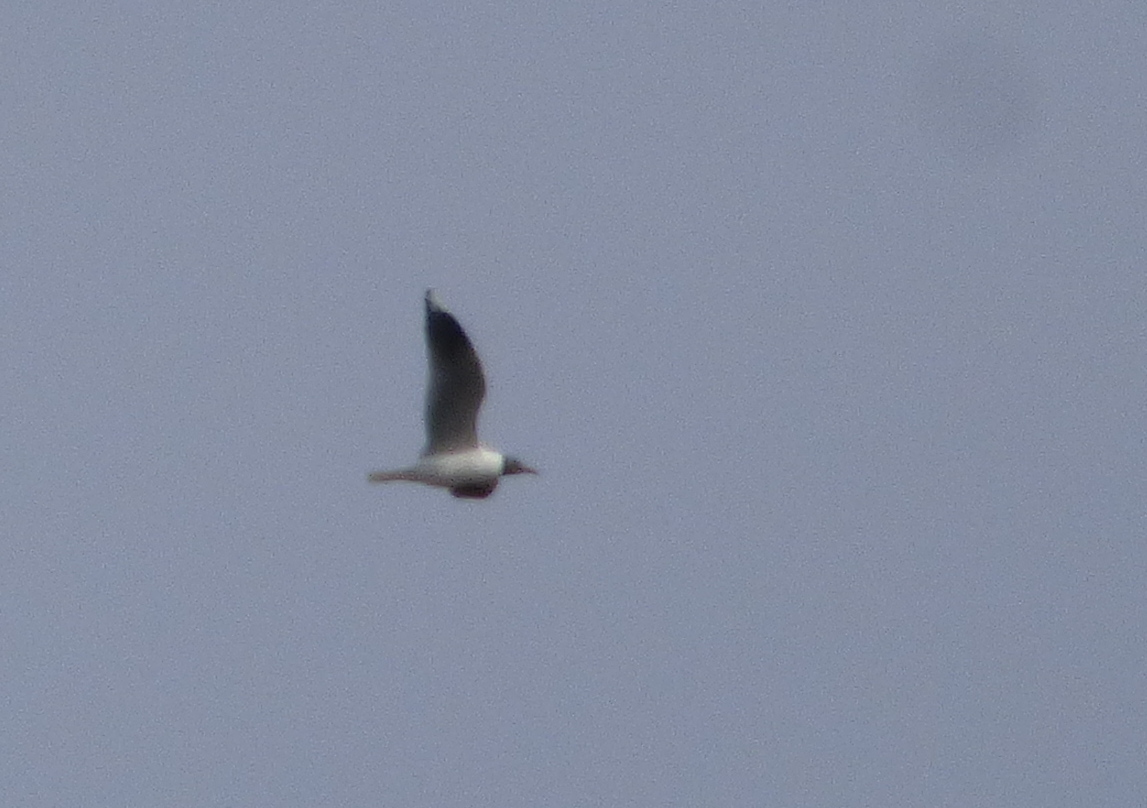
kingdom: Animalia
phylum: Chordata
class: Aves
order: Charadriiformes
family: Laridae
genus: Chroicocephalus
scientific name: Chroicocephalus maculipennis
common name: Brown-hooded gull
